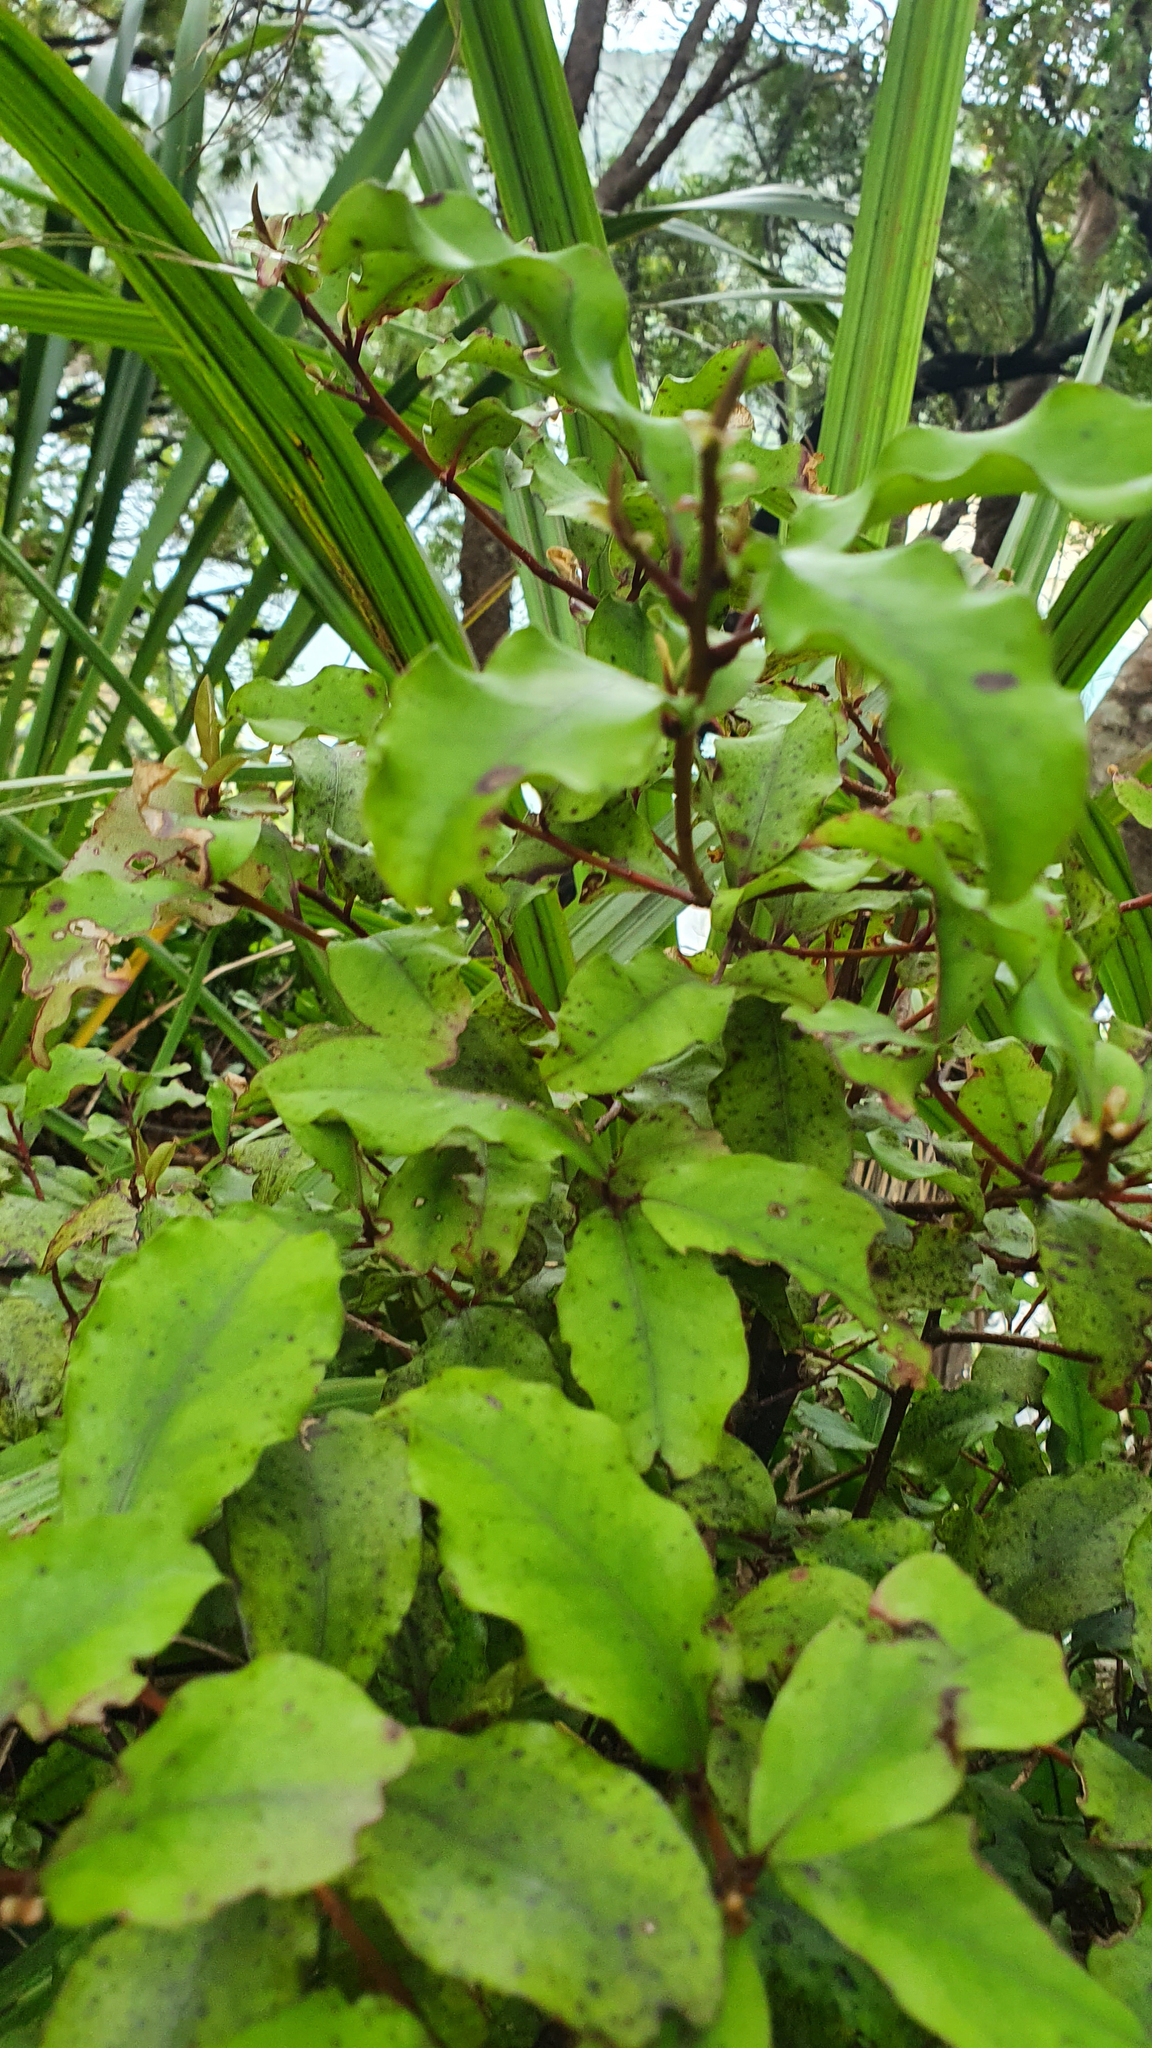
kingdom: Plantae
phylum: Tracheophyta
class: Magnoliopsida
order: Ericales
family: Primulaceae
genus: Myrsine
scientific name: Myrsine australis
